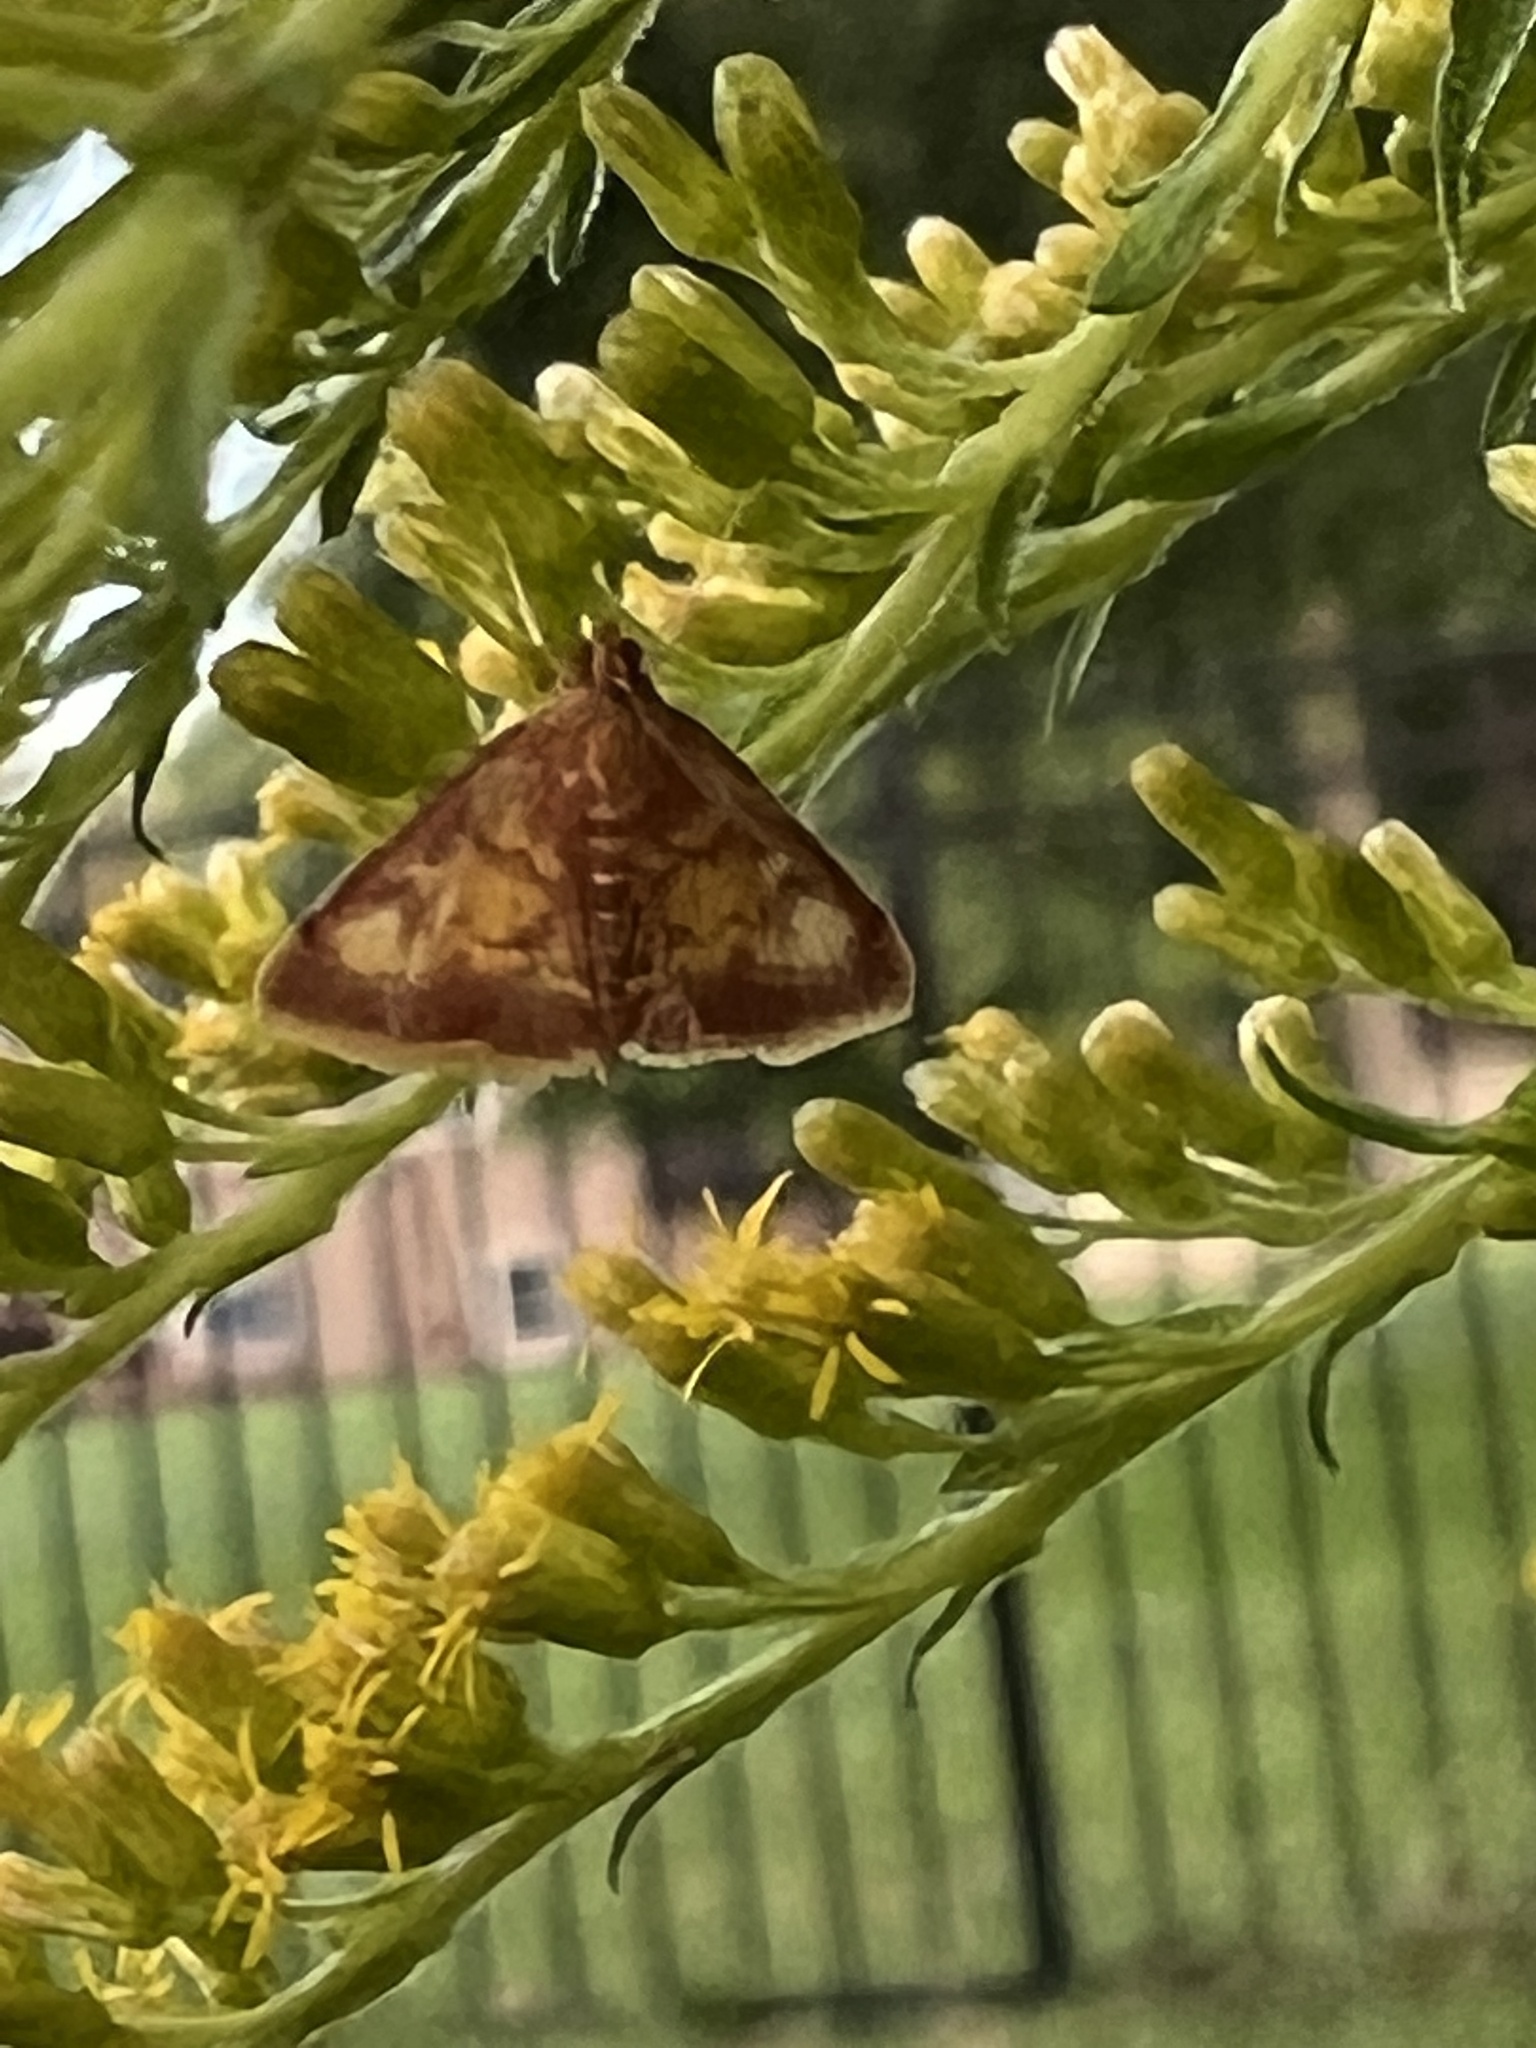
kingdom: Animalia
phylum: Arthropoda
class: Insecta
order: Lepidoptera
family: Crambidae
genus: Pyrausta
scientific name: Pyrausta acrionalis
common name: Mint-loving pyrausta moth
